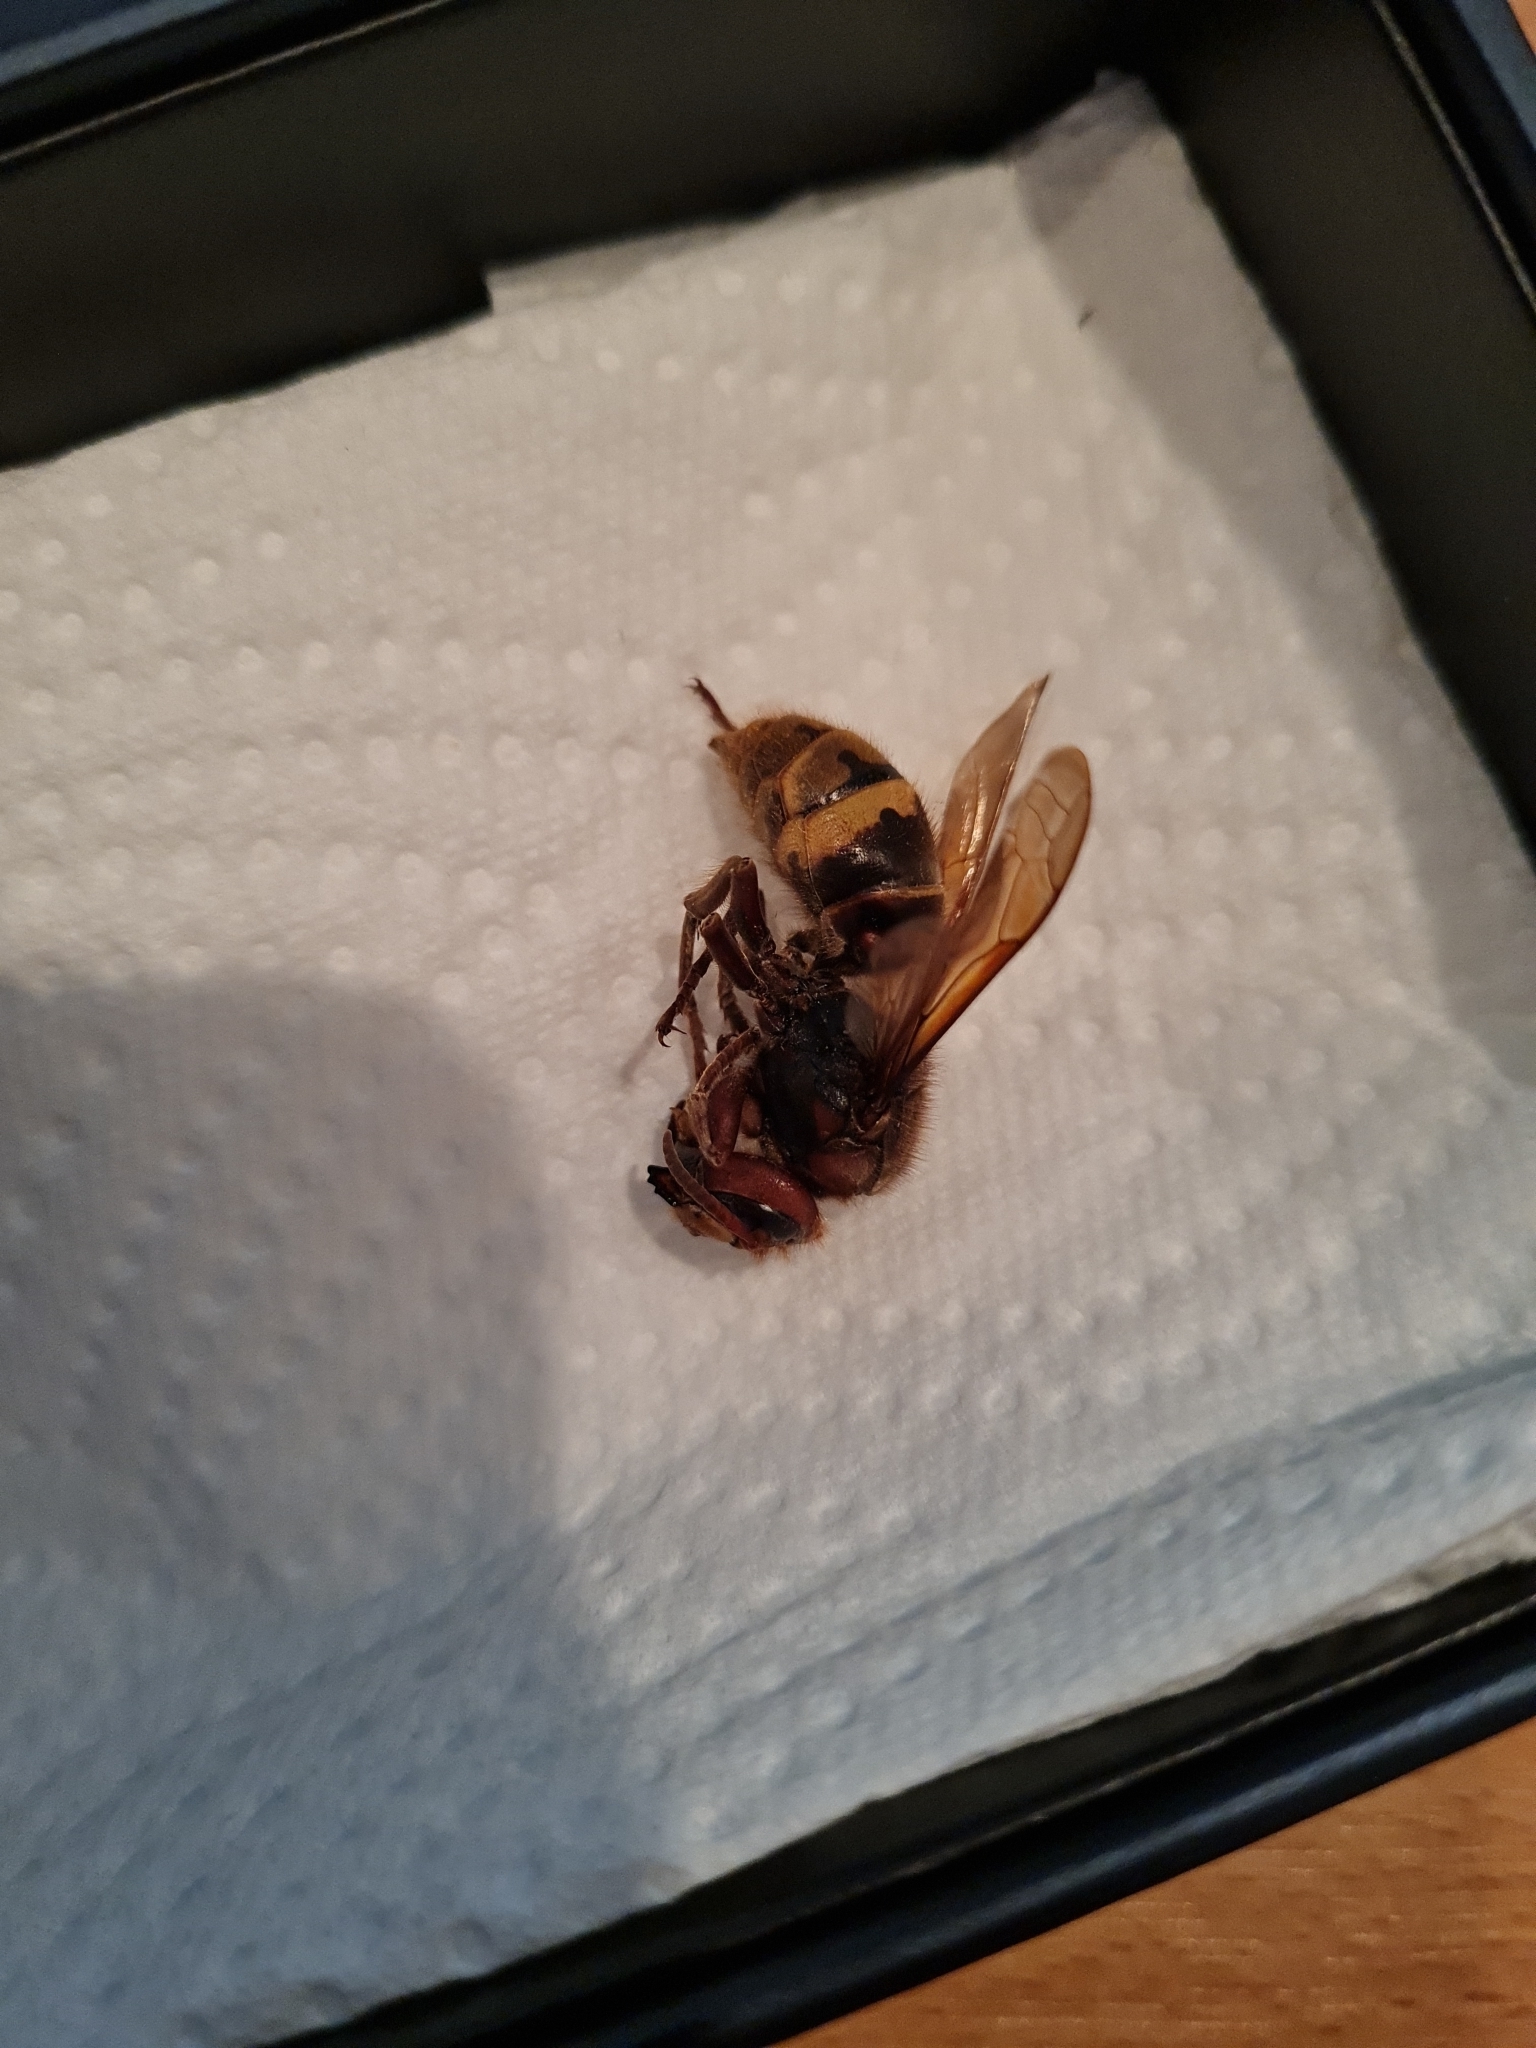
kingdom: Animalia
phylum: Arthropoda
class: Insecta
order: Hymenoptera
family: Vespidae
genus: Vespa
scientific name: Vespa crabro
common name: Hornet
